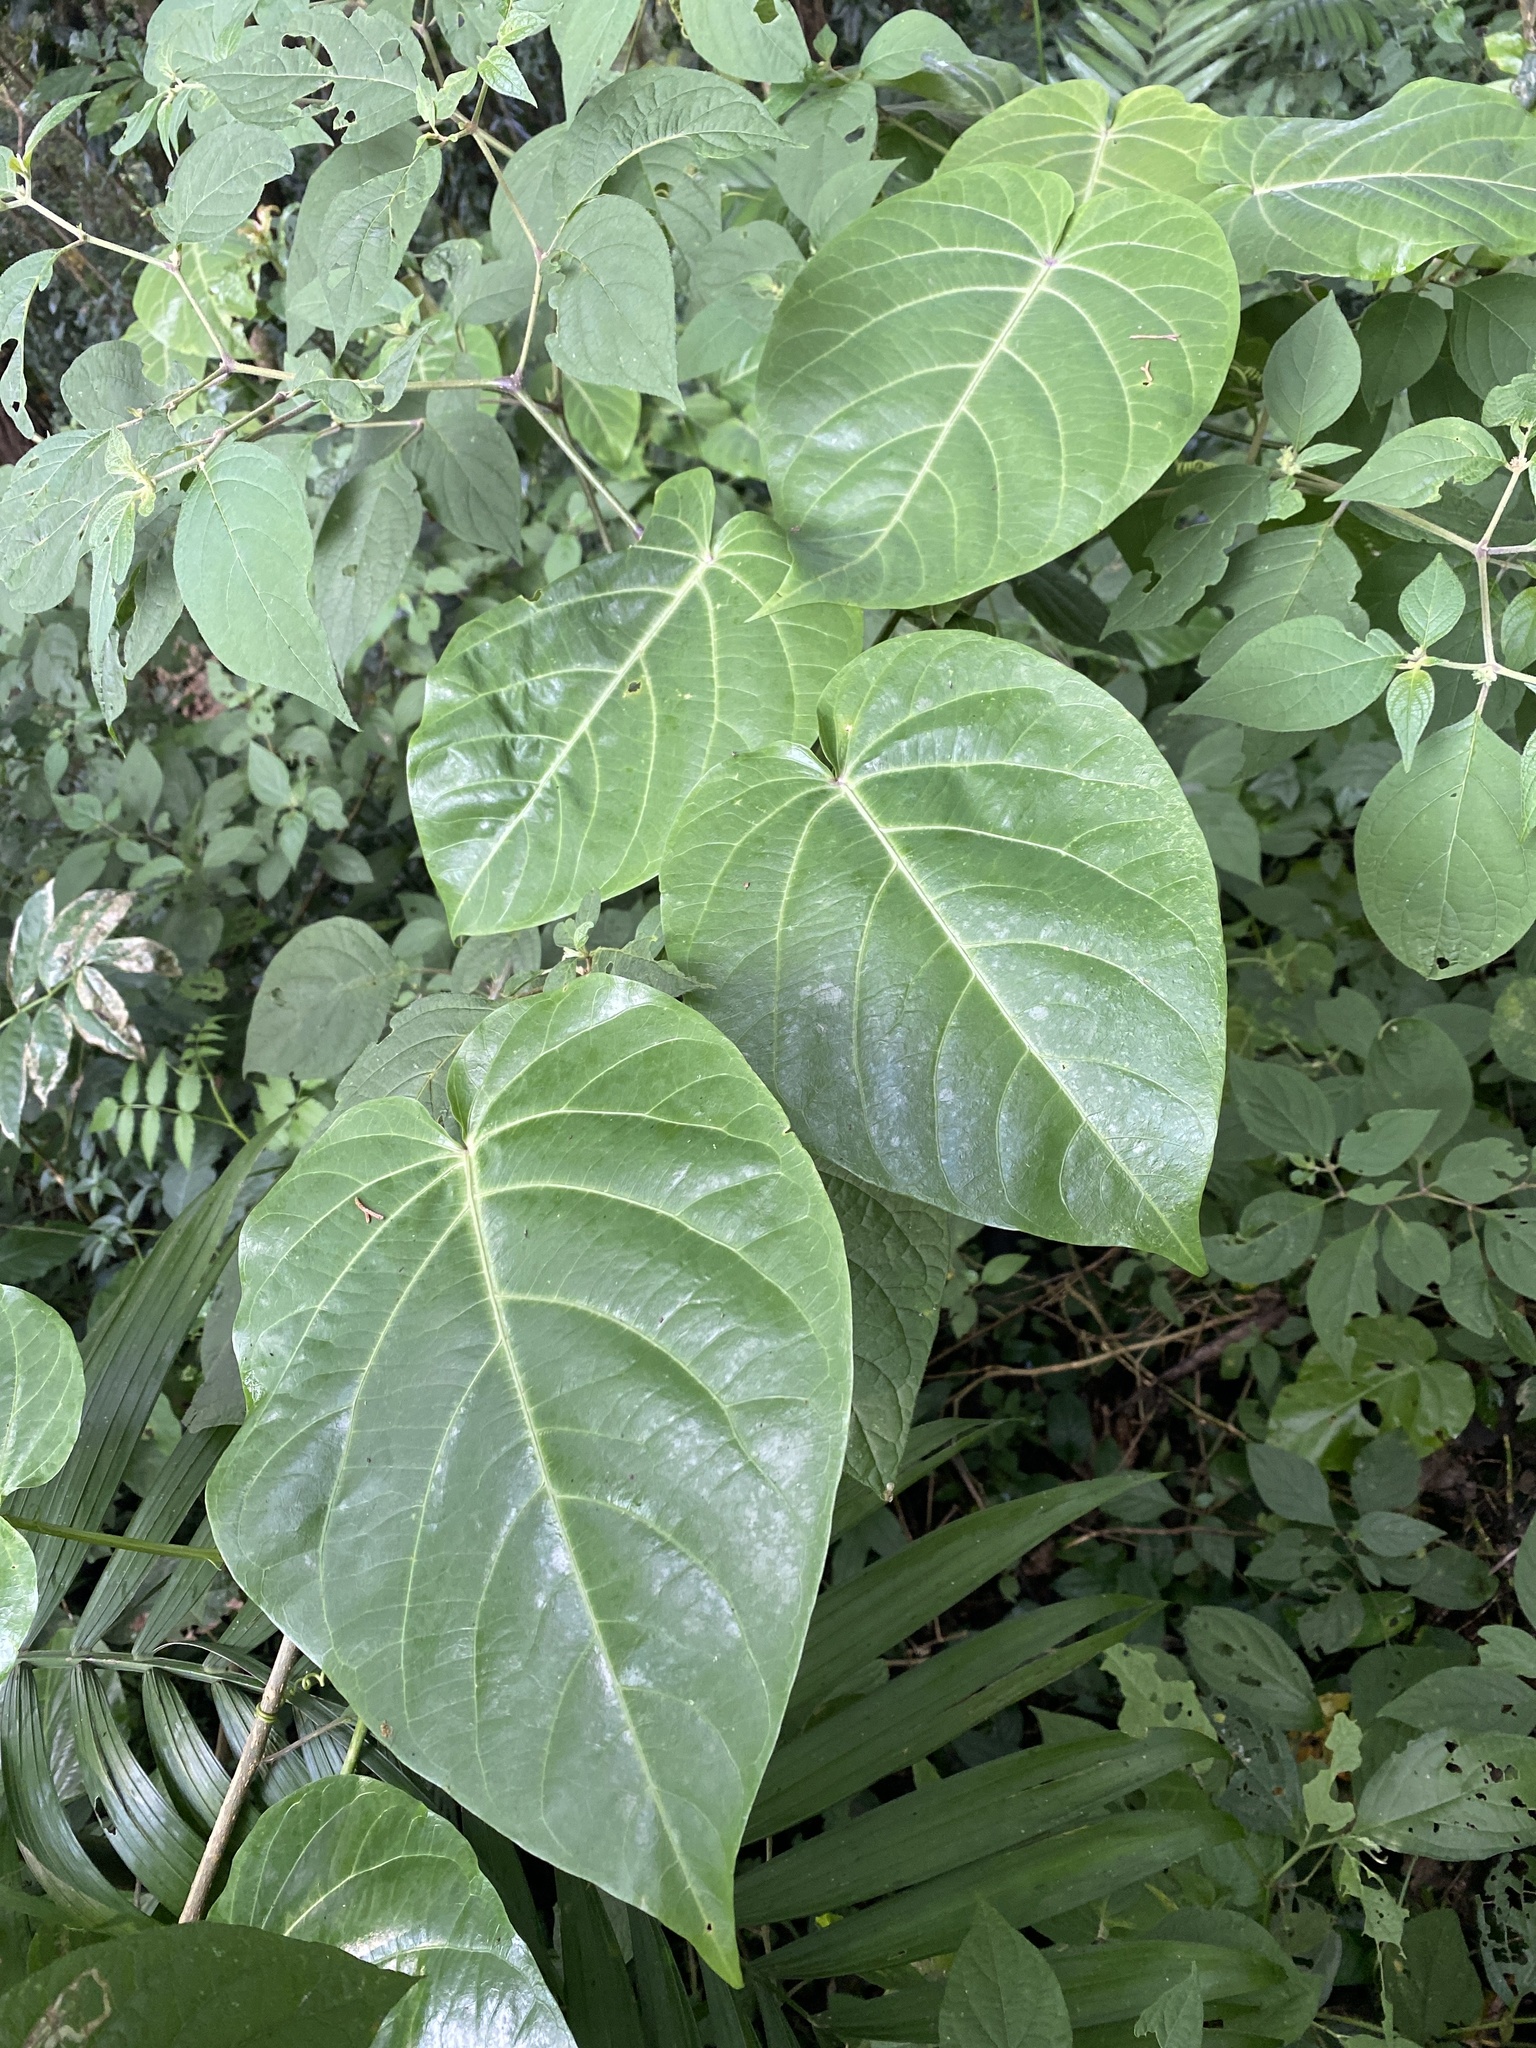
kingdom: Plantae
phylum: Tracheophyta
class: Magnoliopsida
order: Malpighiales
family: Passifloraceae
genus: Passiflora
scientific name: Passiflora ligularis
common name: Sweet granadilla
